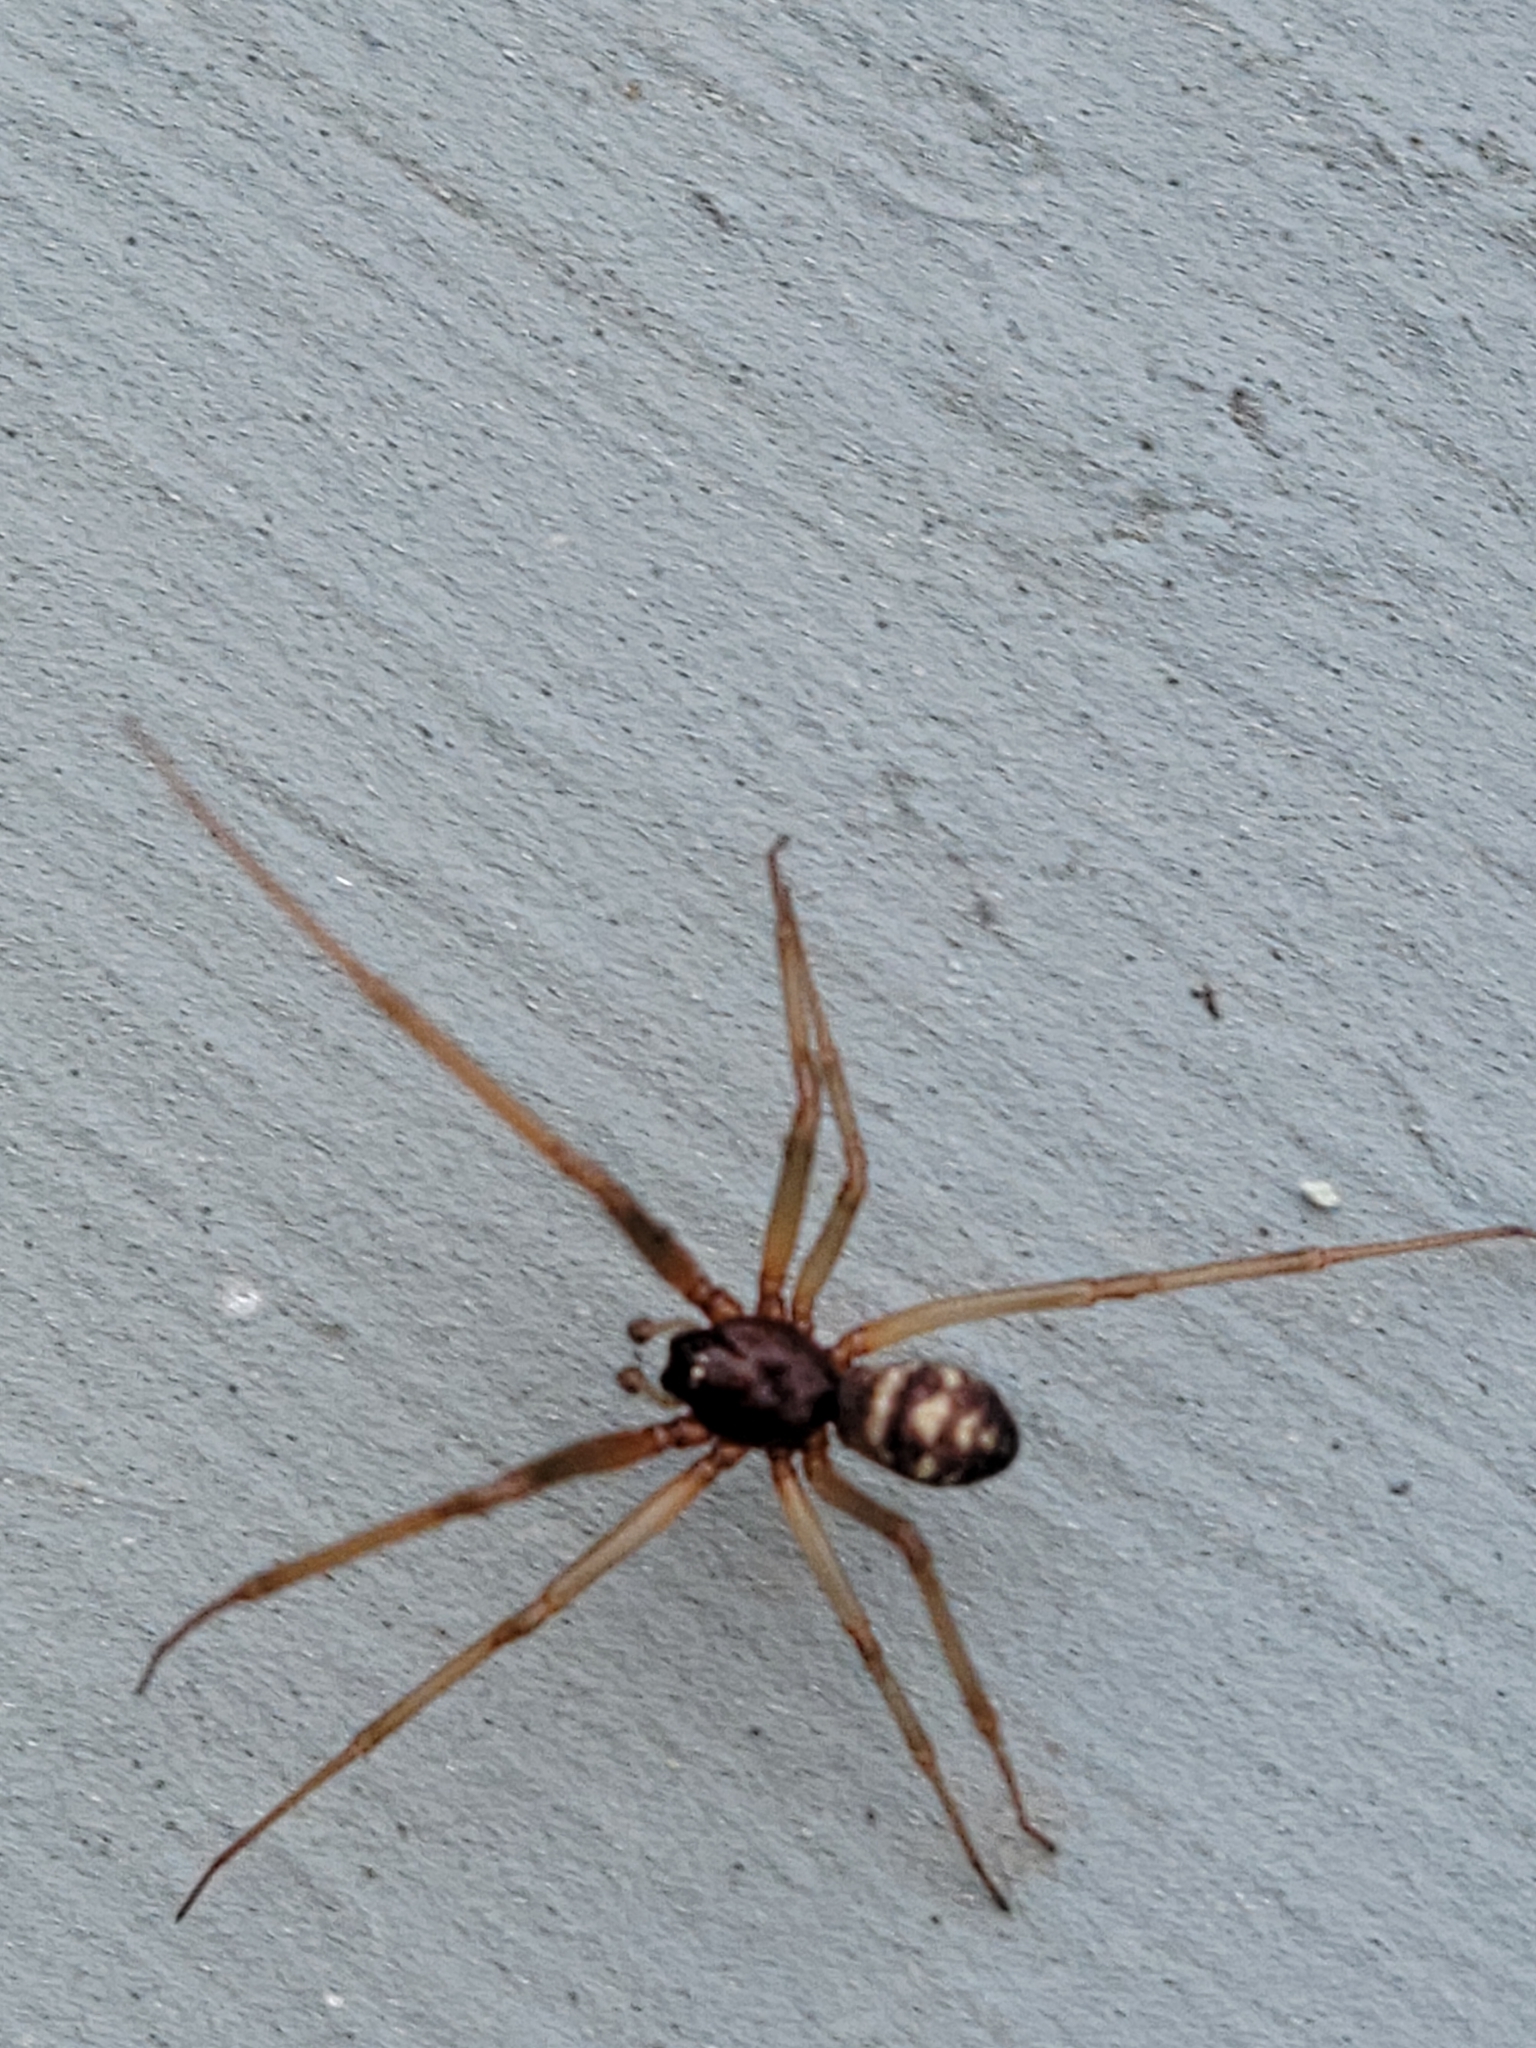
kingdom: Animalia
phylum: Arthropoda
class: Arachnida
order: Araneae
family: Theridiidae
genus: Steatoda
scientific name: Steatoda grossa
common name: False black widow
